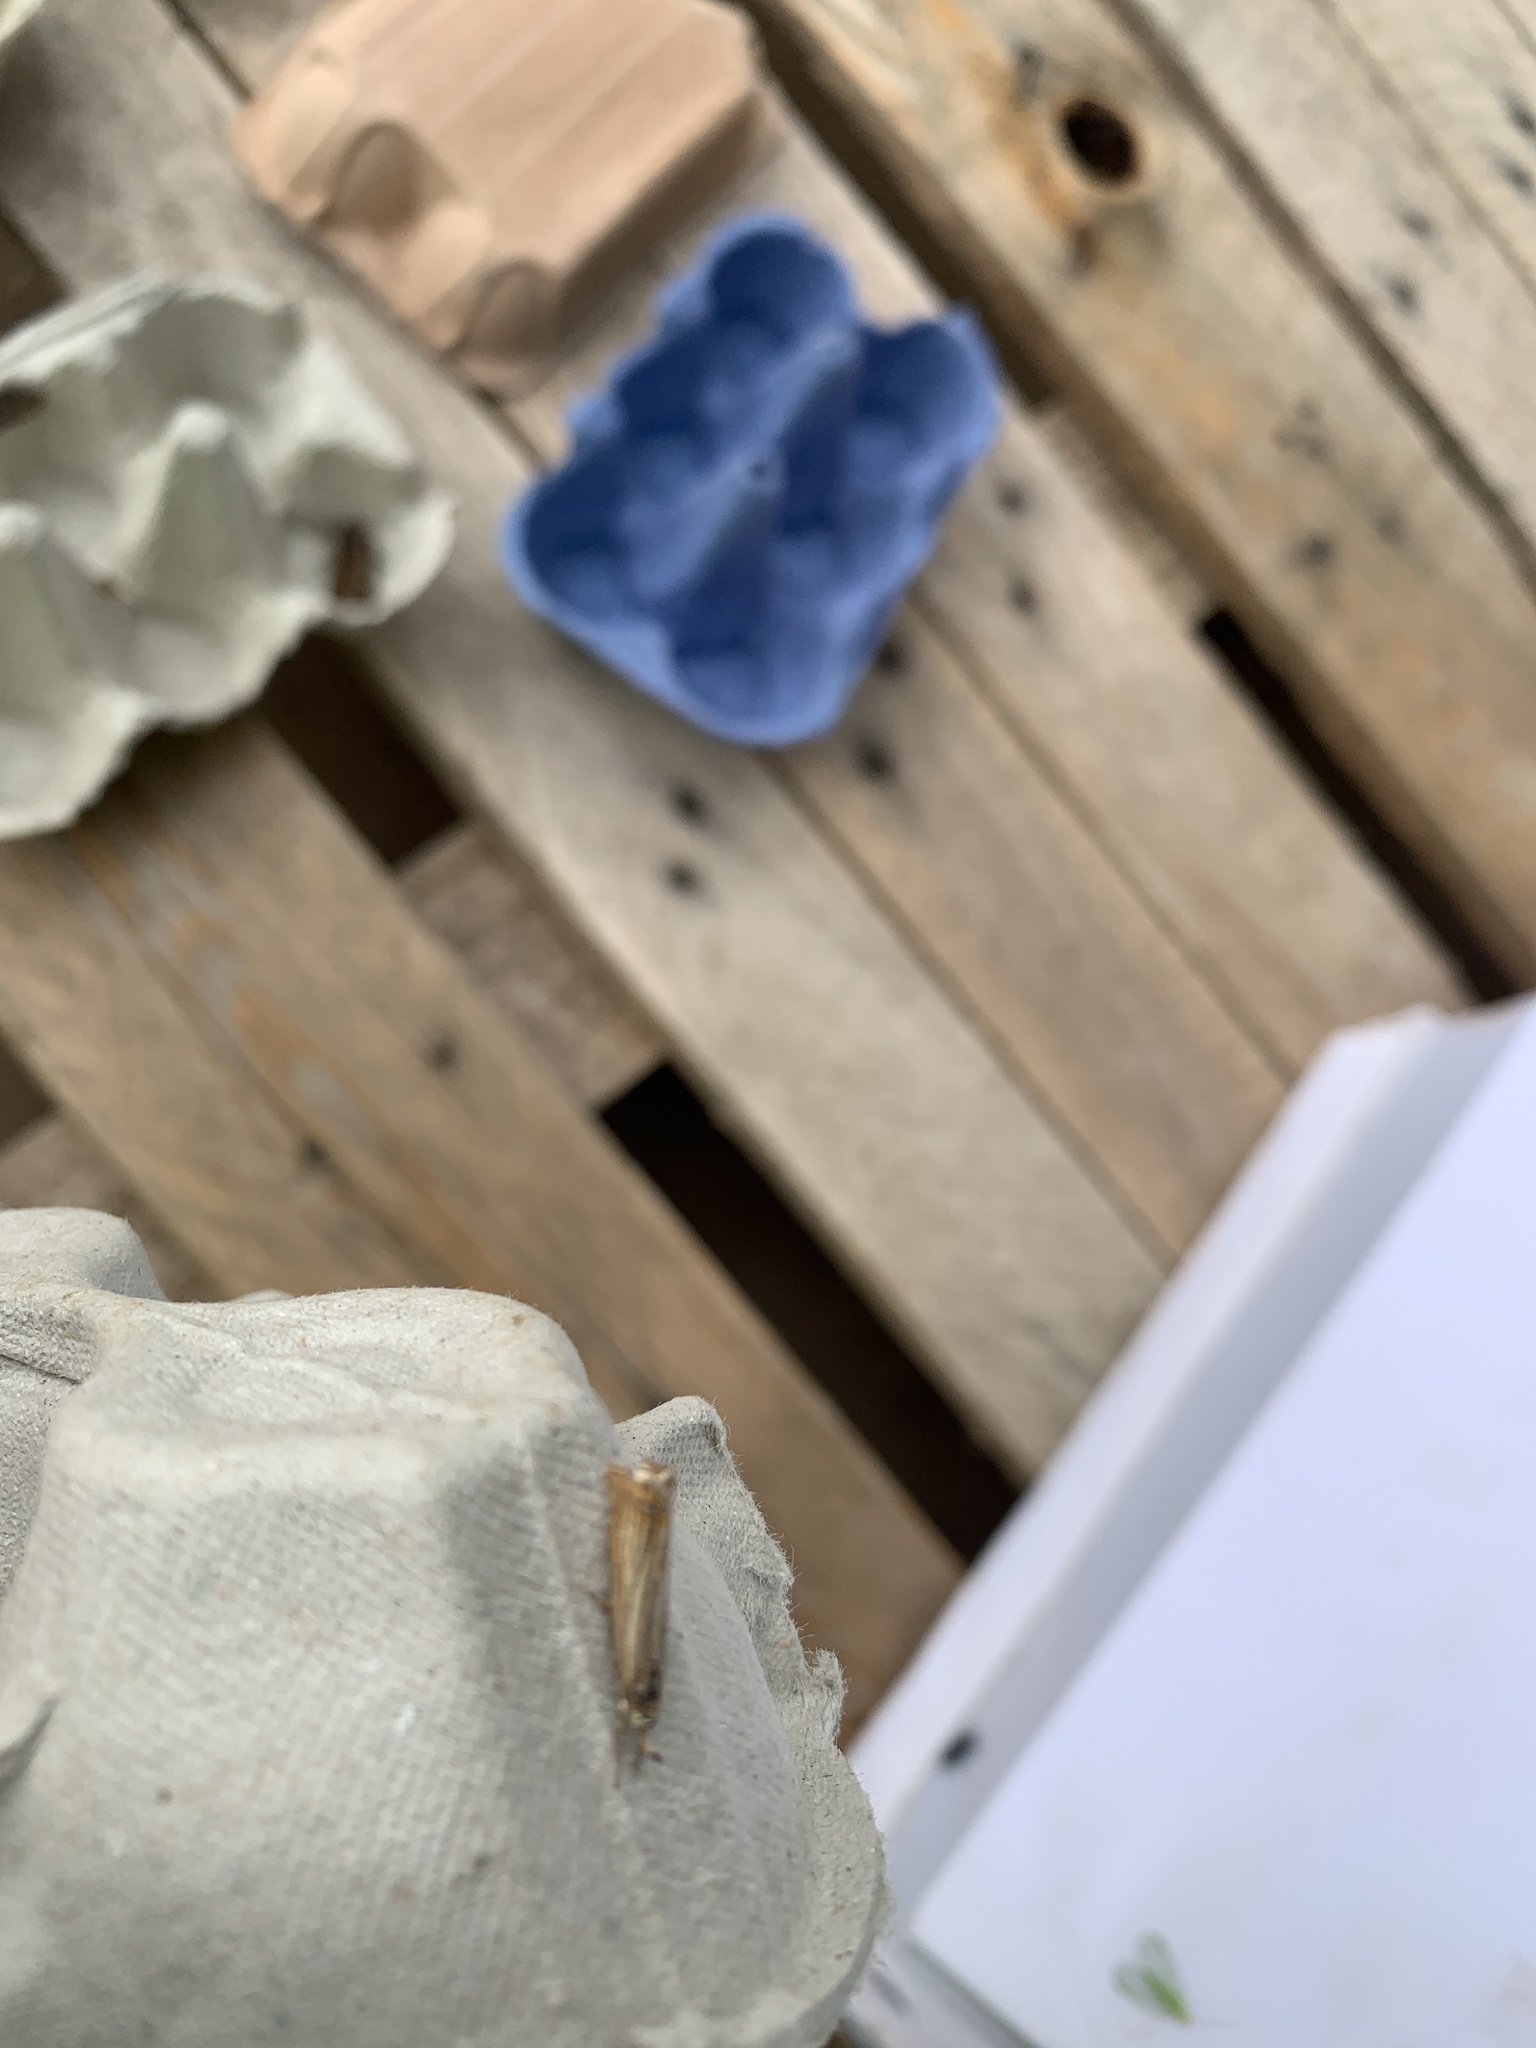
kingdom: Animalia
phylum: Arthropoda
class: Insecta
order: Lepidoptera
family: Crambidae
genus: Chrysoteuchia
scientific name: Chrysoteuchia culmella
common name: Garden grass-veneer
